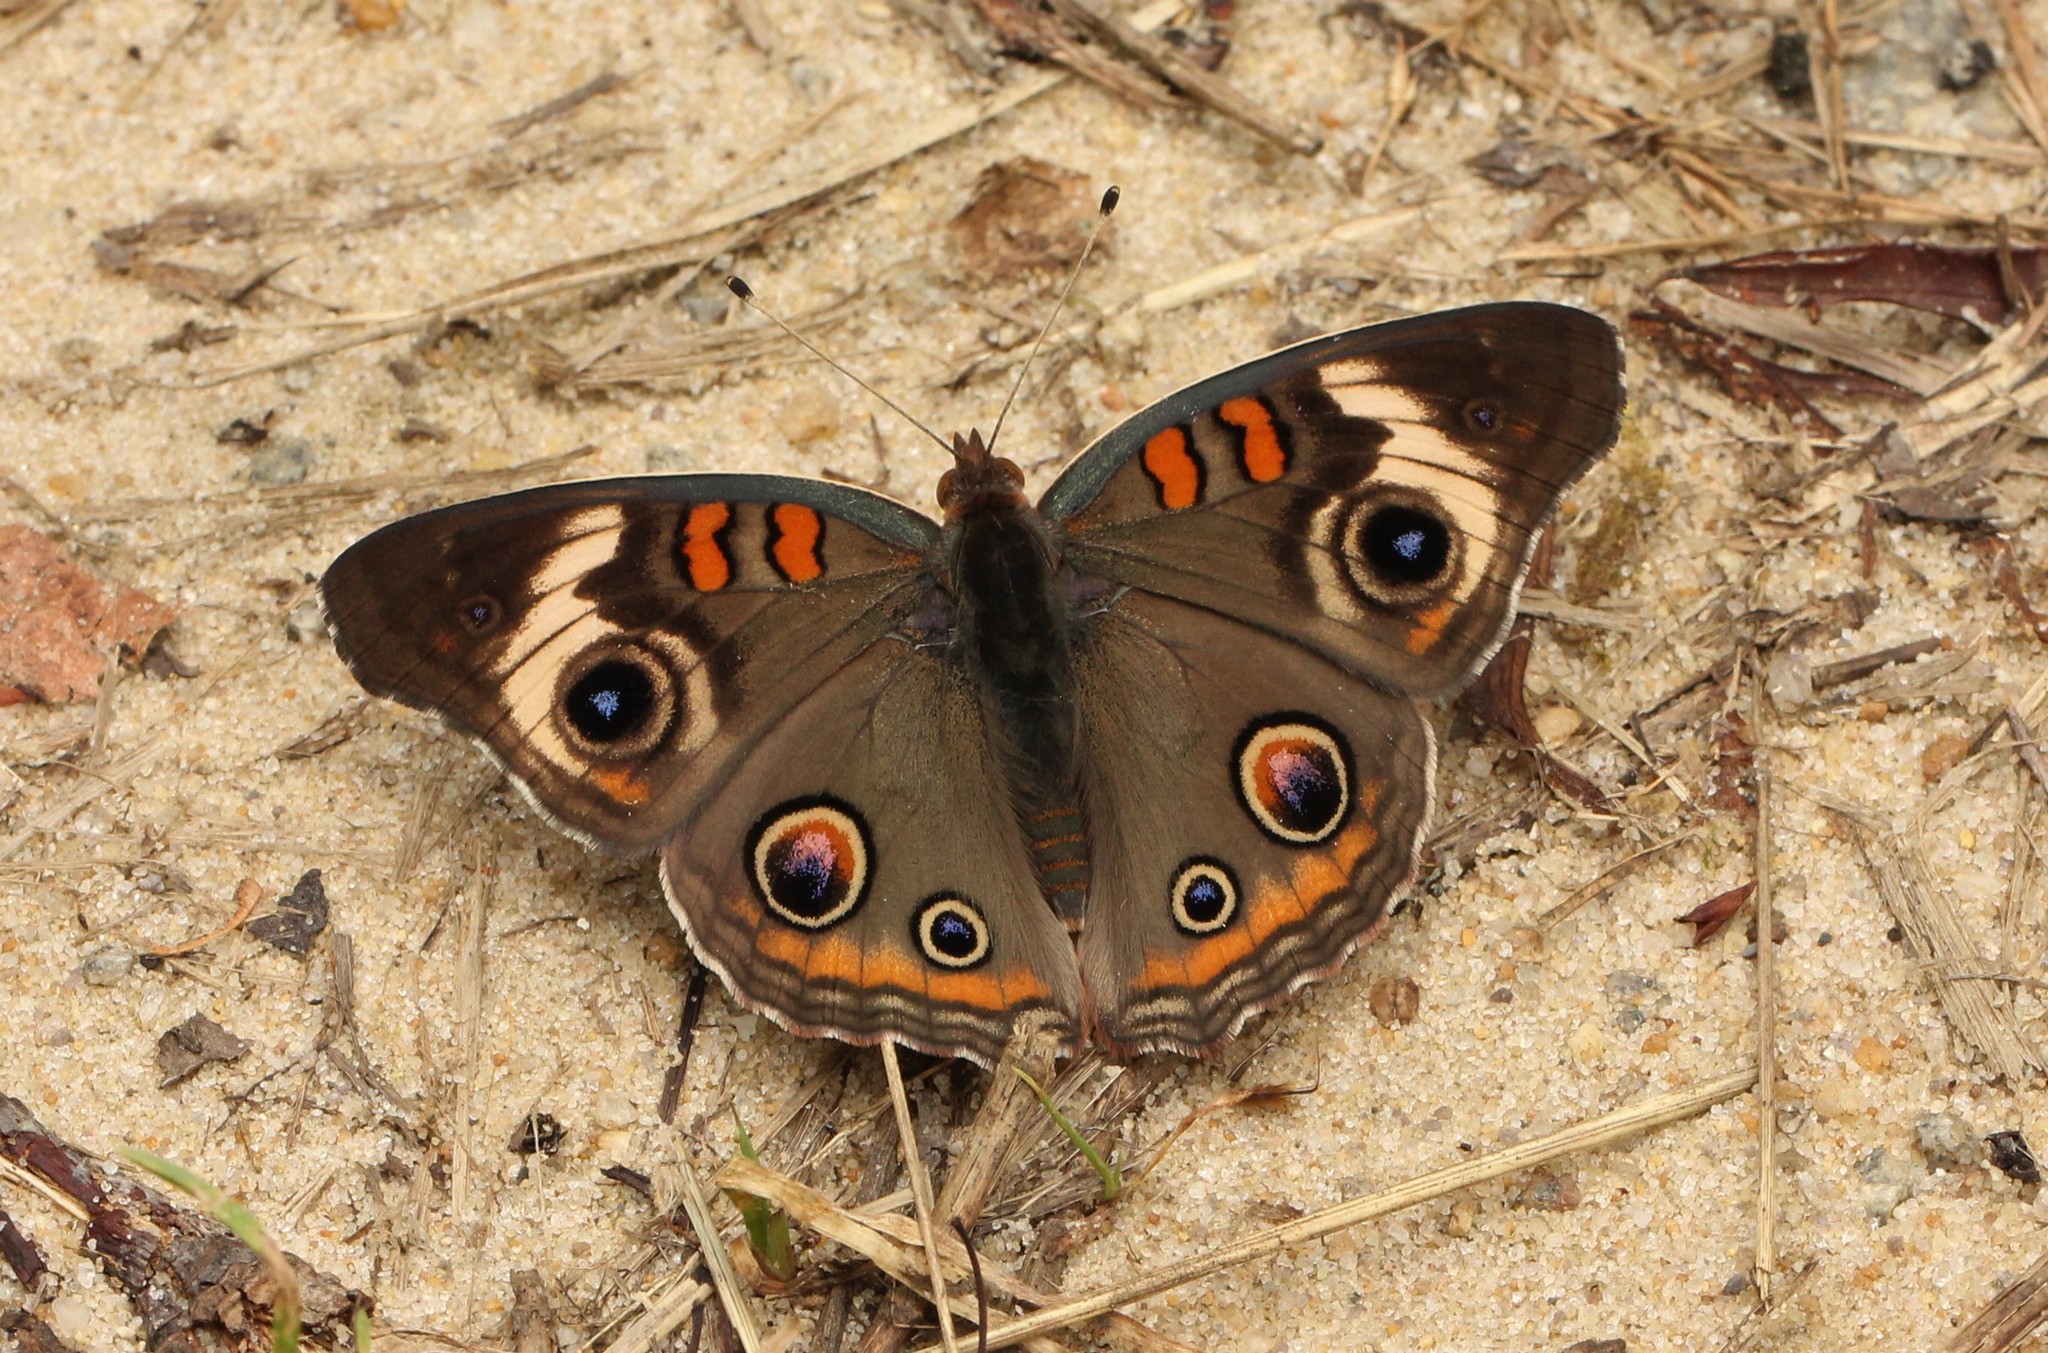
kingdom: Animalia
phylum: Arthropoda
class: Insecta
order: Lepidoptera
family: Nymphalidae
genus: Junonia
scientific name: Junonia coenia
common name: Common buckeye
